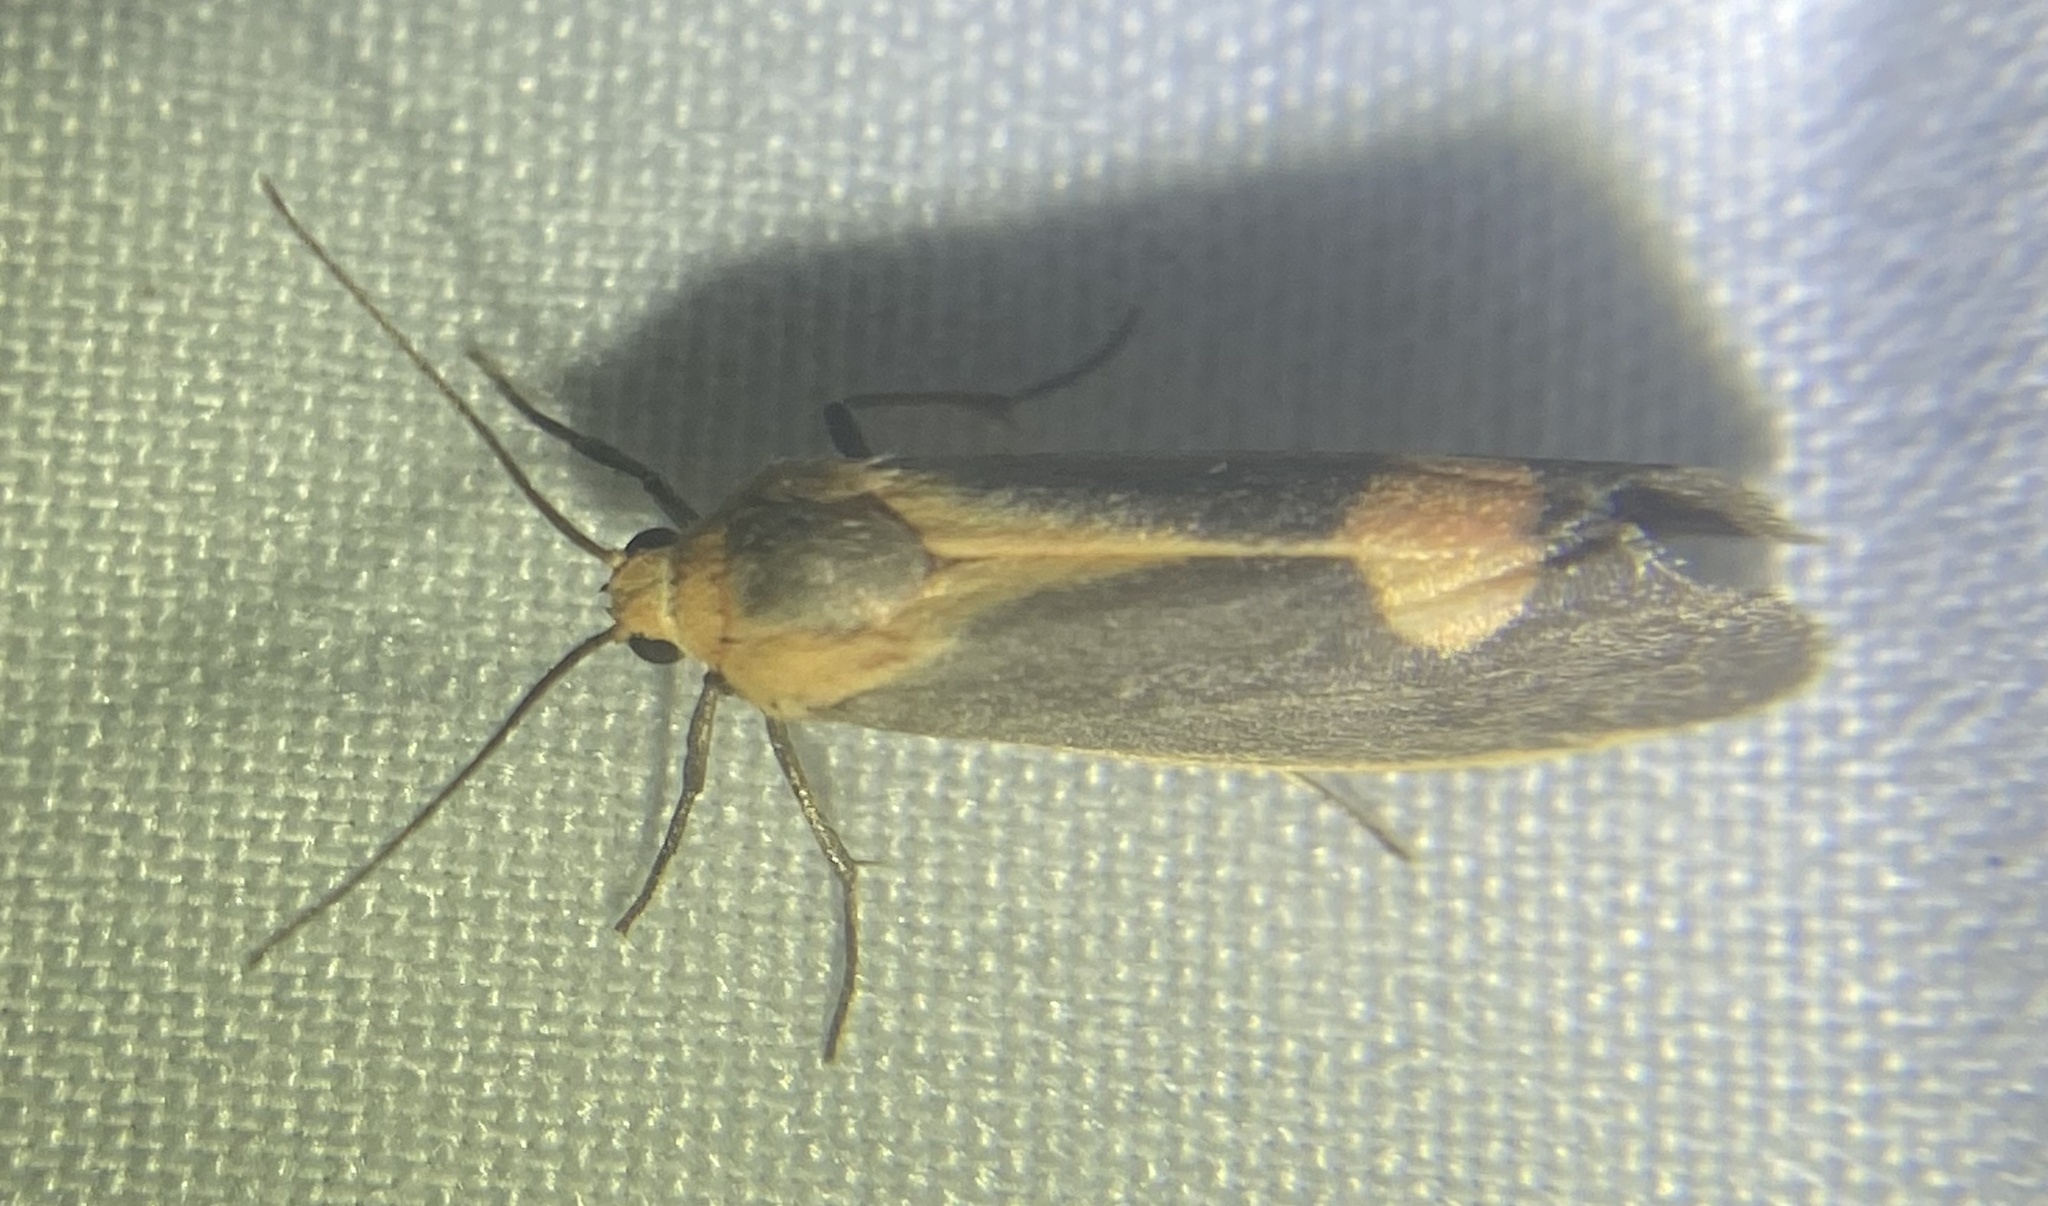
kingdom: Animalia
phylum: Arthropoda
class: Insecta
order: Lepidoptera
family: Erebidae
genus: Cisthene
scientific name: Cisthene plumbea
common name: Lead colored lichen moth
